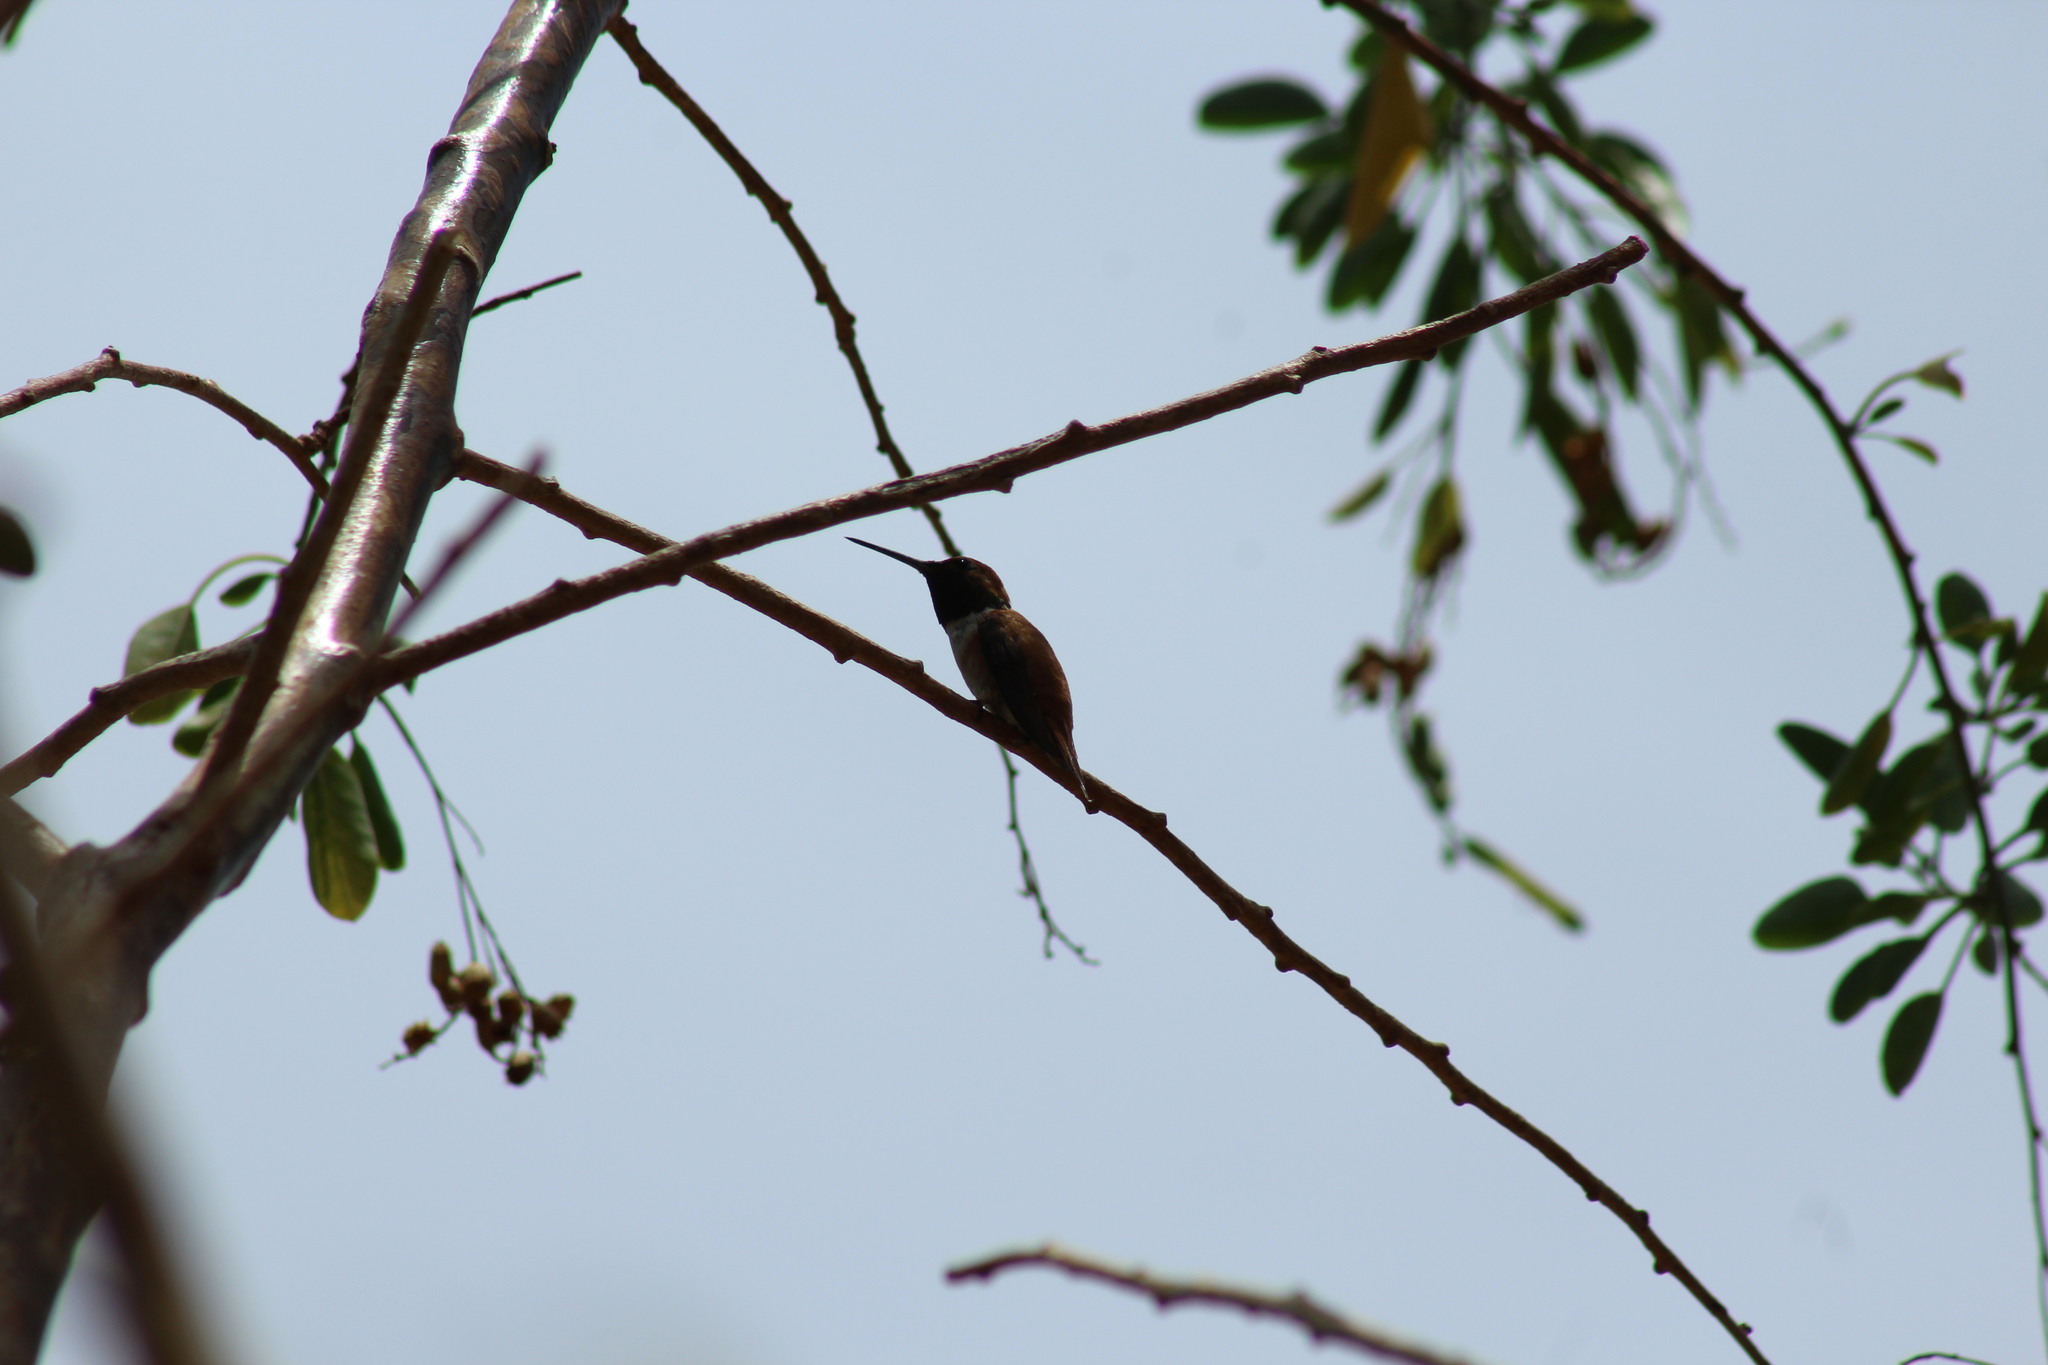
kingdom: Animalia
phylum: Chordata
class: Aves
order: Apodiformes
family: Trochilidae
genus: Selasphorus
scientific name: Selasphorus rufus
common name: Rufous hummingbird
